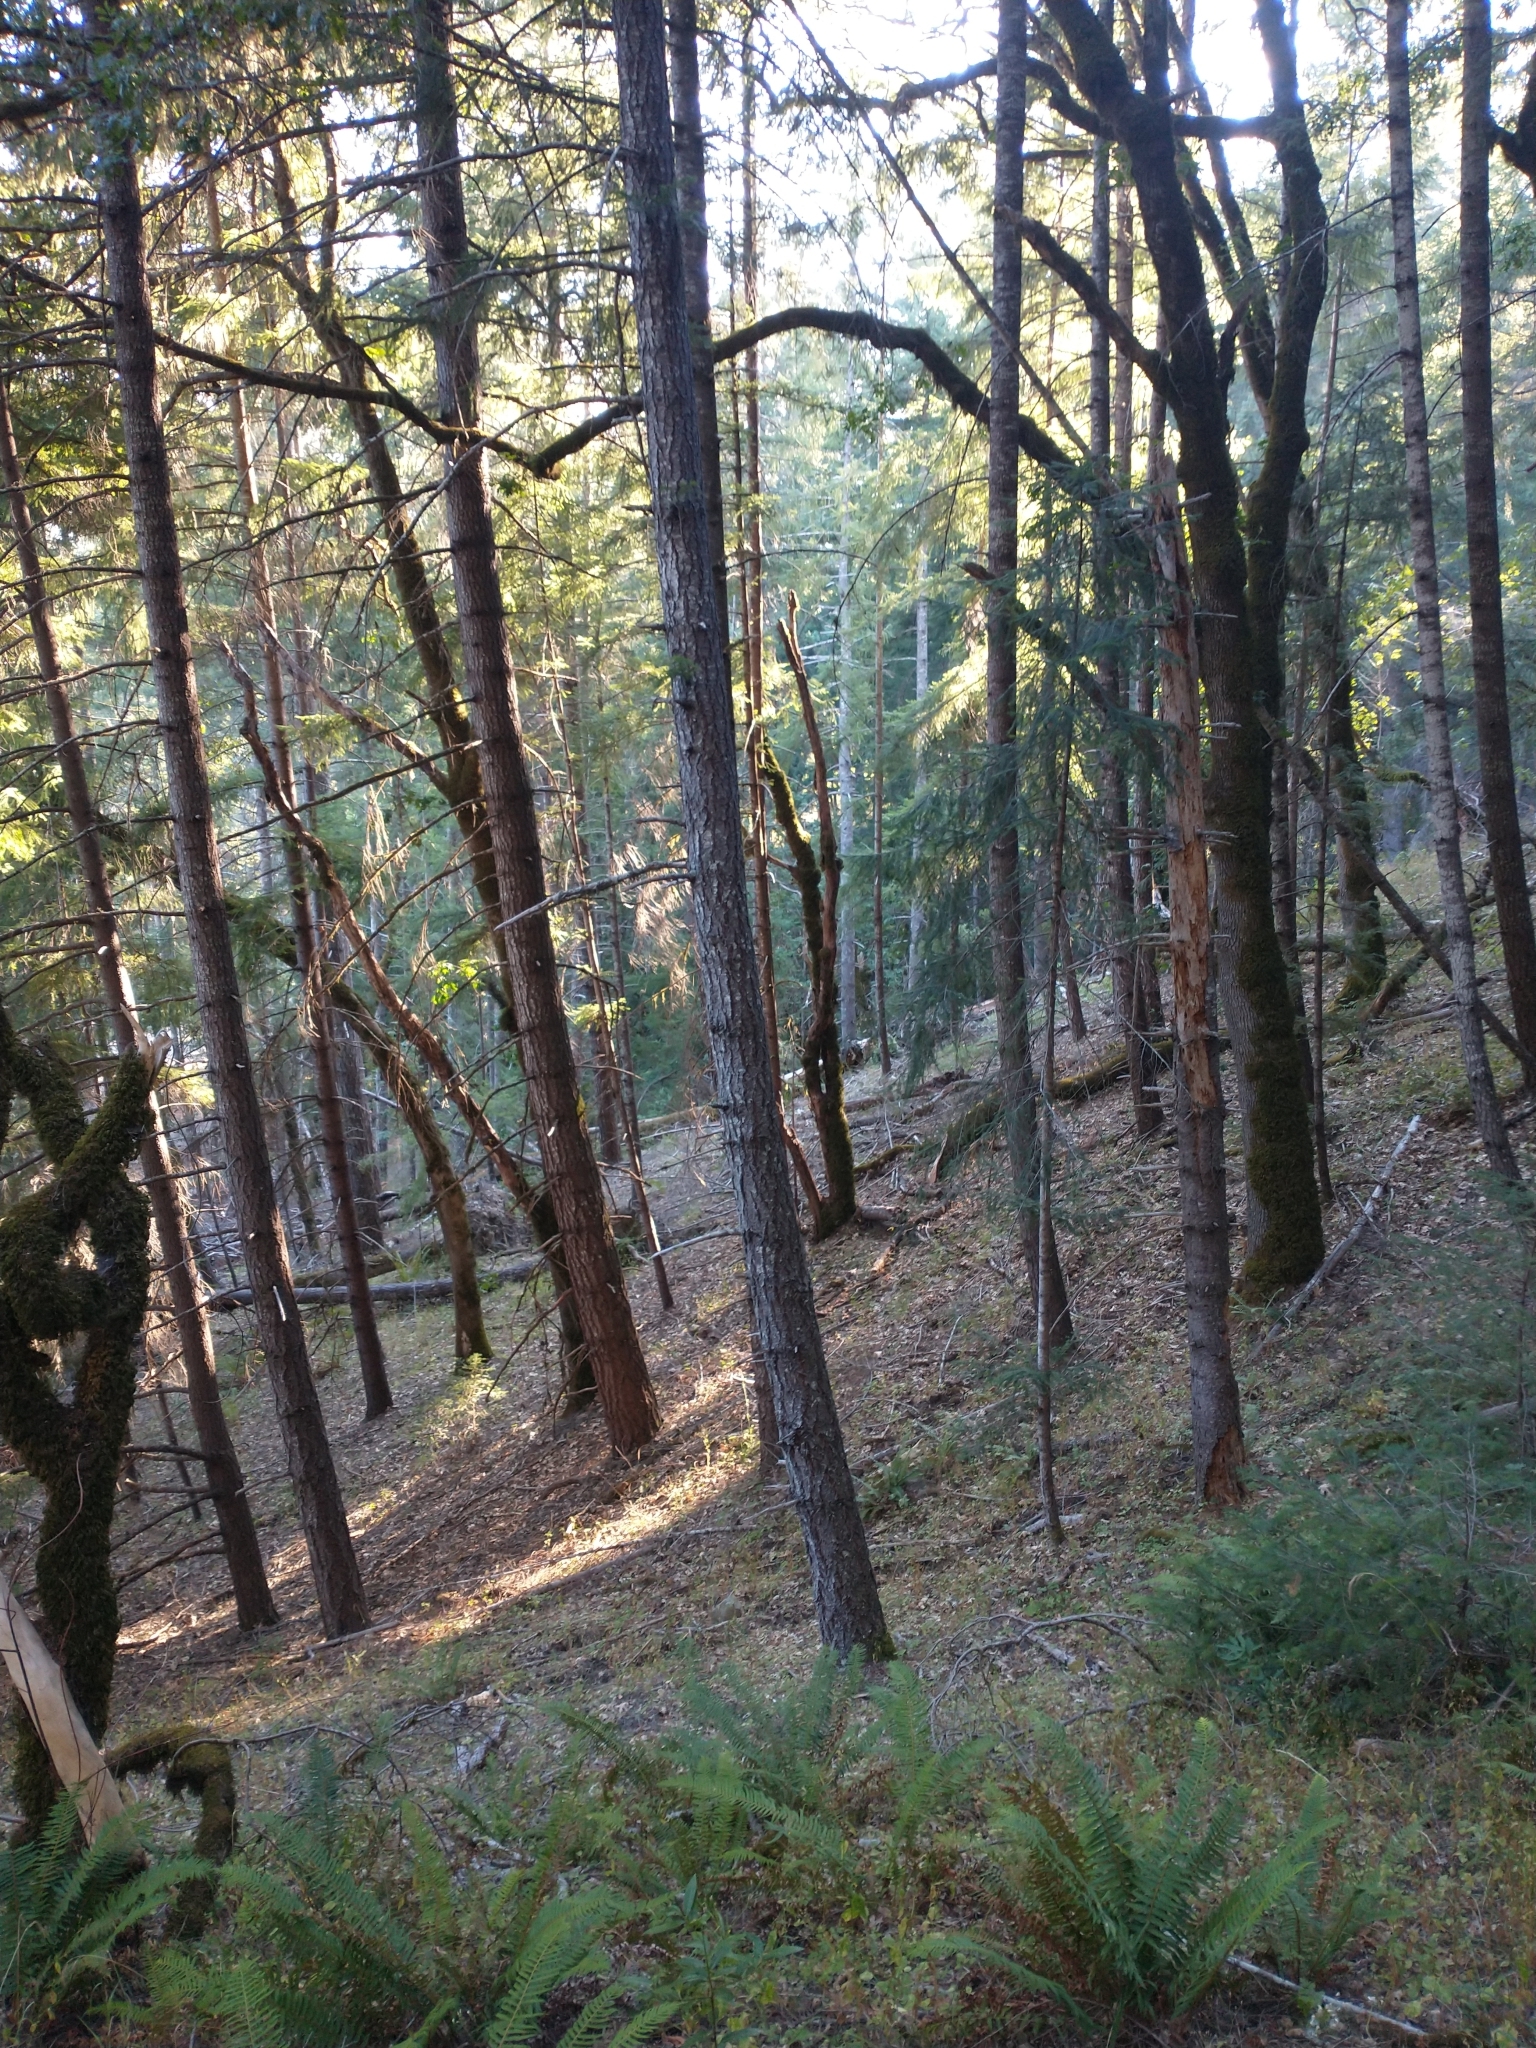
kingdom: Plantae
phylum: Tracheophyta
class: Pinopsida
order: Pinales
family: Pinaceae
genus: Pseudotsuga
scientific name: Pseudotsuga menziesii
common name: Douglas fir
